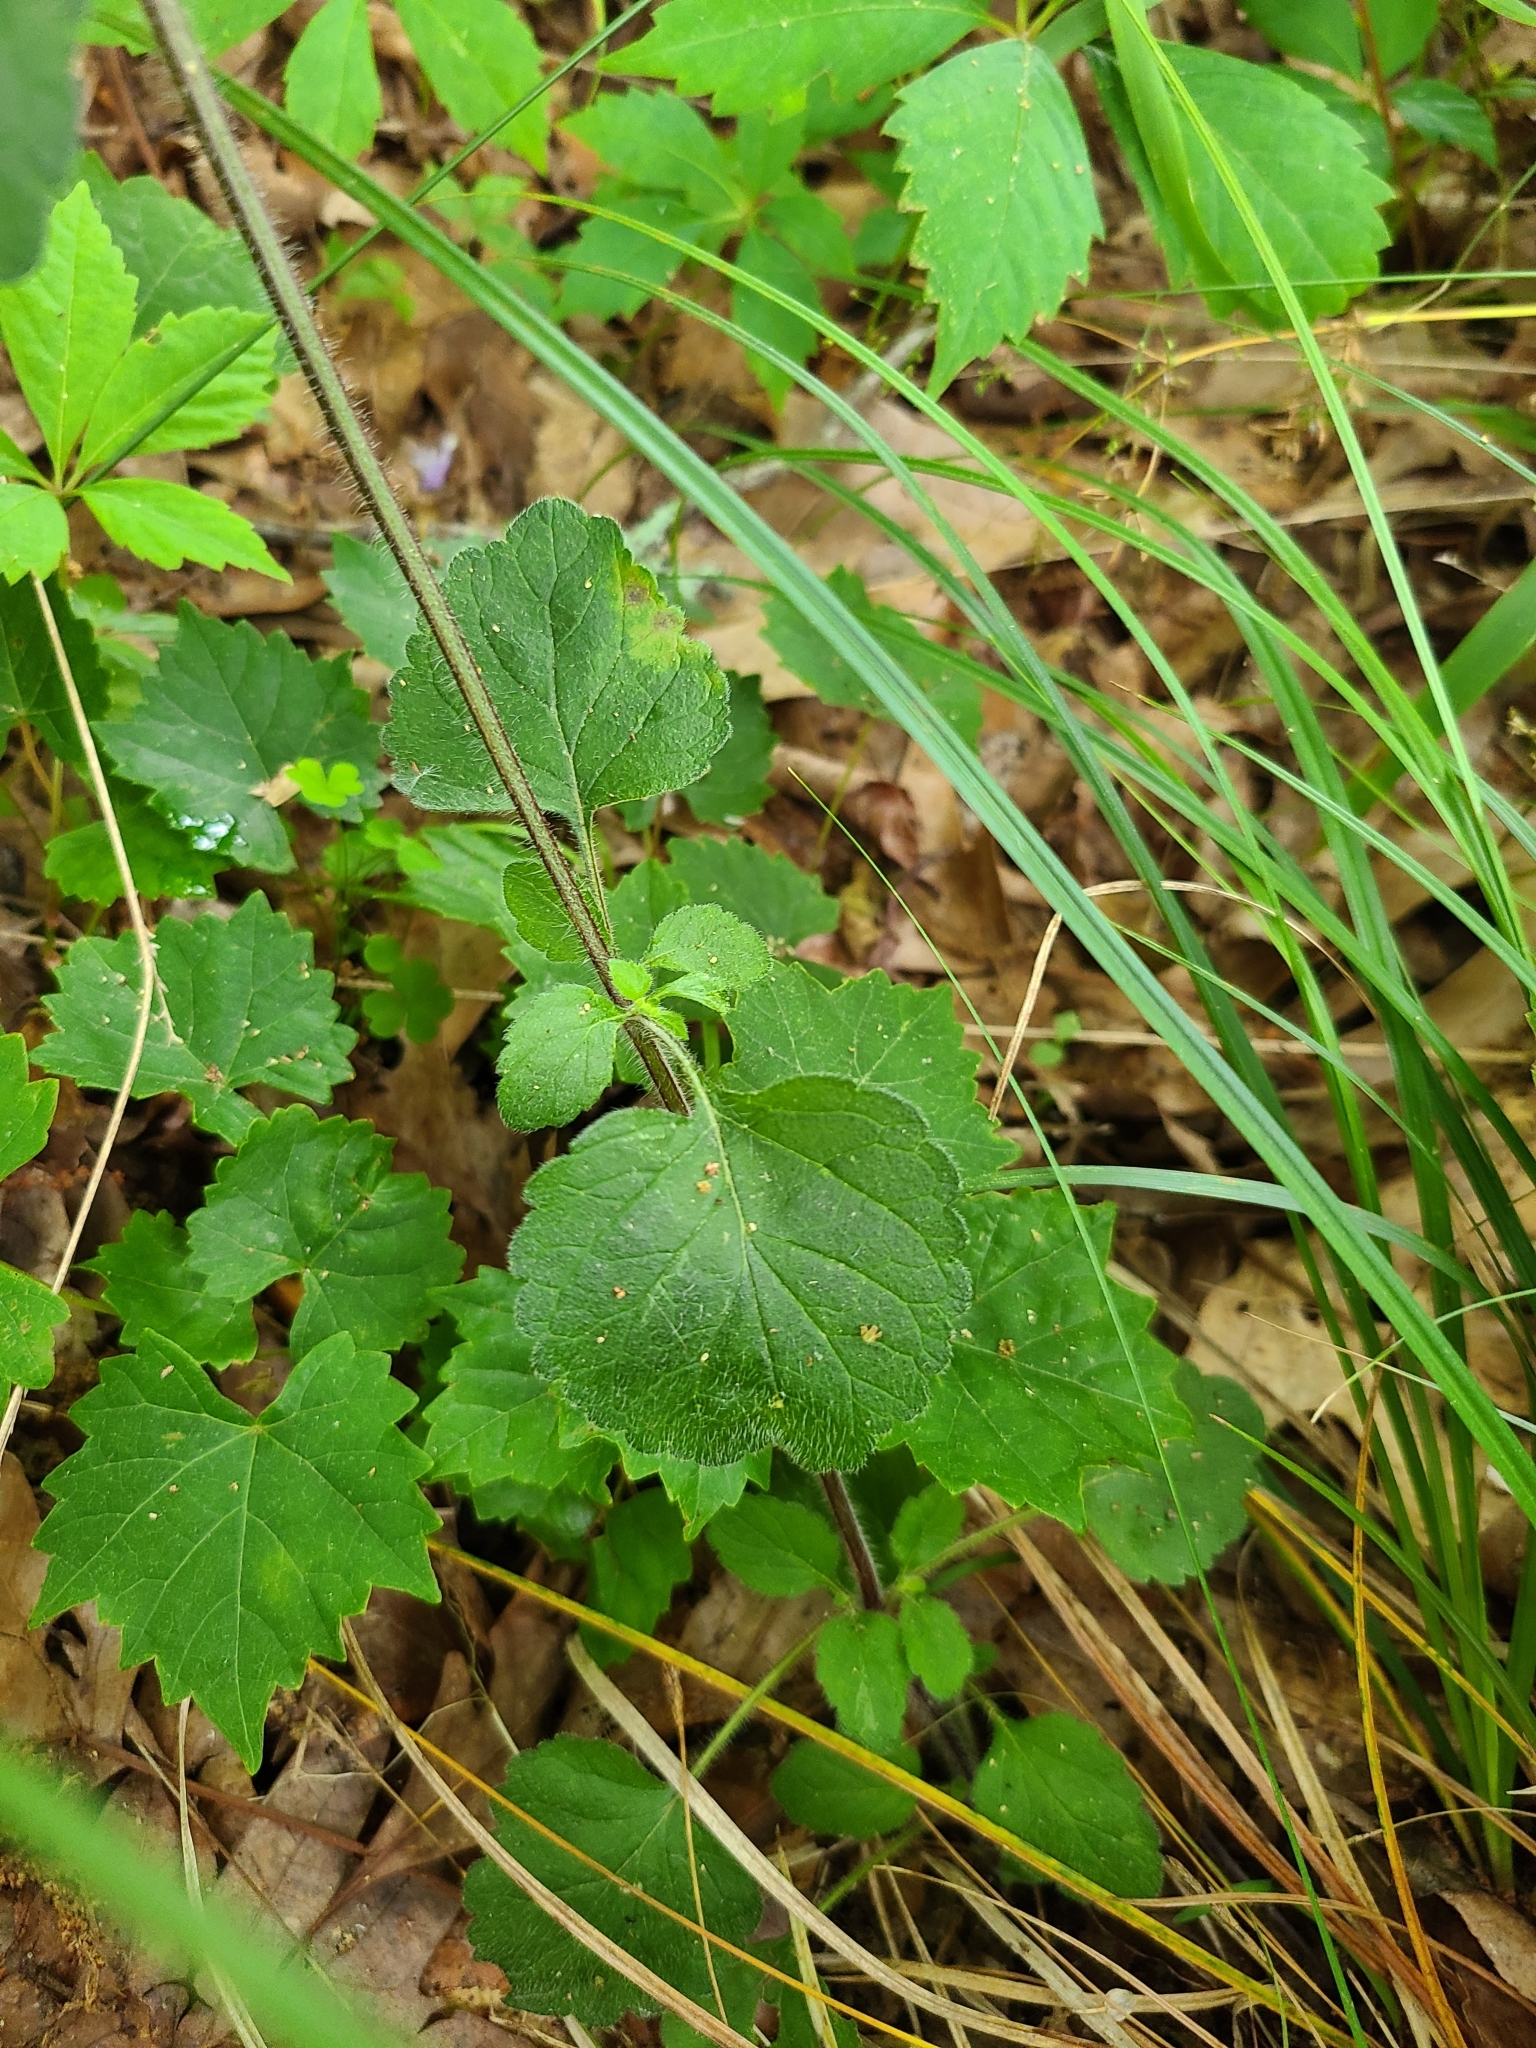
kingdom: Plantae
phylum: Tracheophyta
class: Magnoliopsida
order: Lamiales
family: Lamiaceae
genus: Scutellaria
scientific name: Scutellaria elliptica
